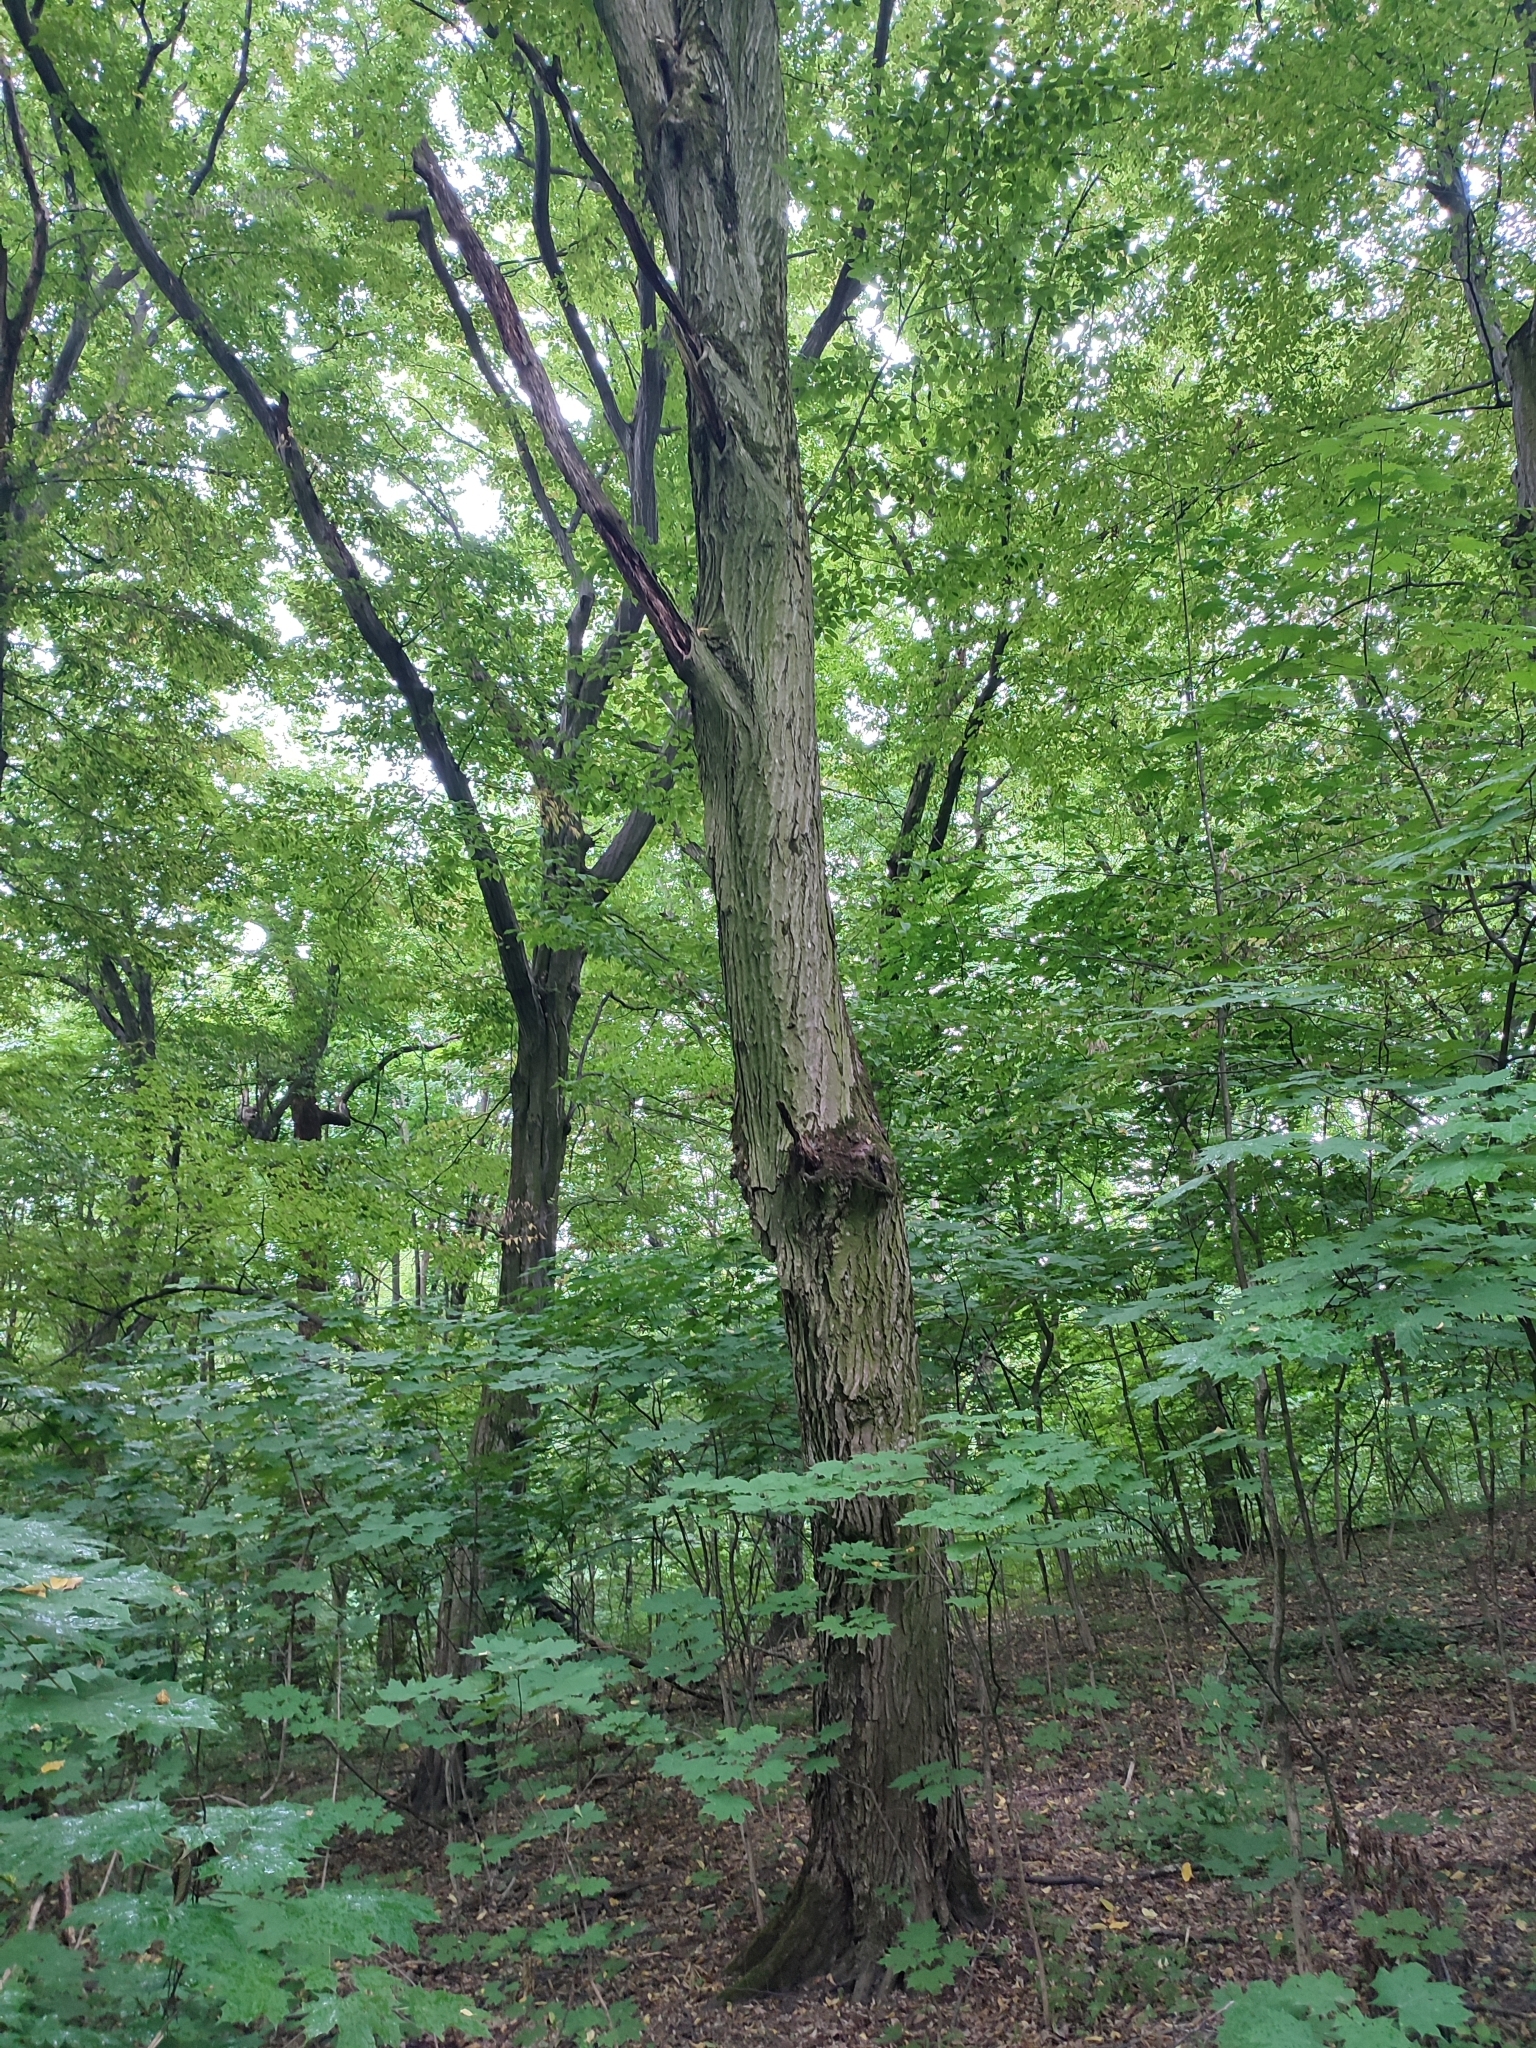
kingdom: Plantae
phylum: Tracheophyta
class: Magnoliopsida
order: Fagales
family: Betulaceae
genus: Carpinus
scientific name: Carpinus betulus
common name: Hornbeam
